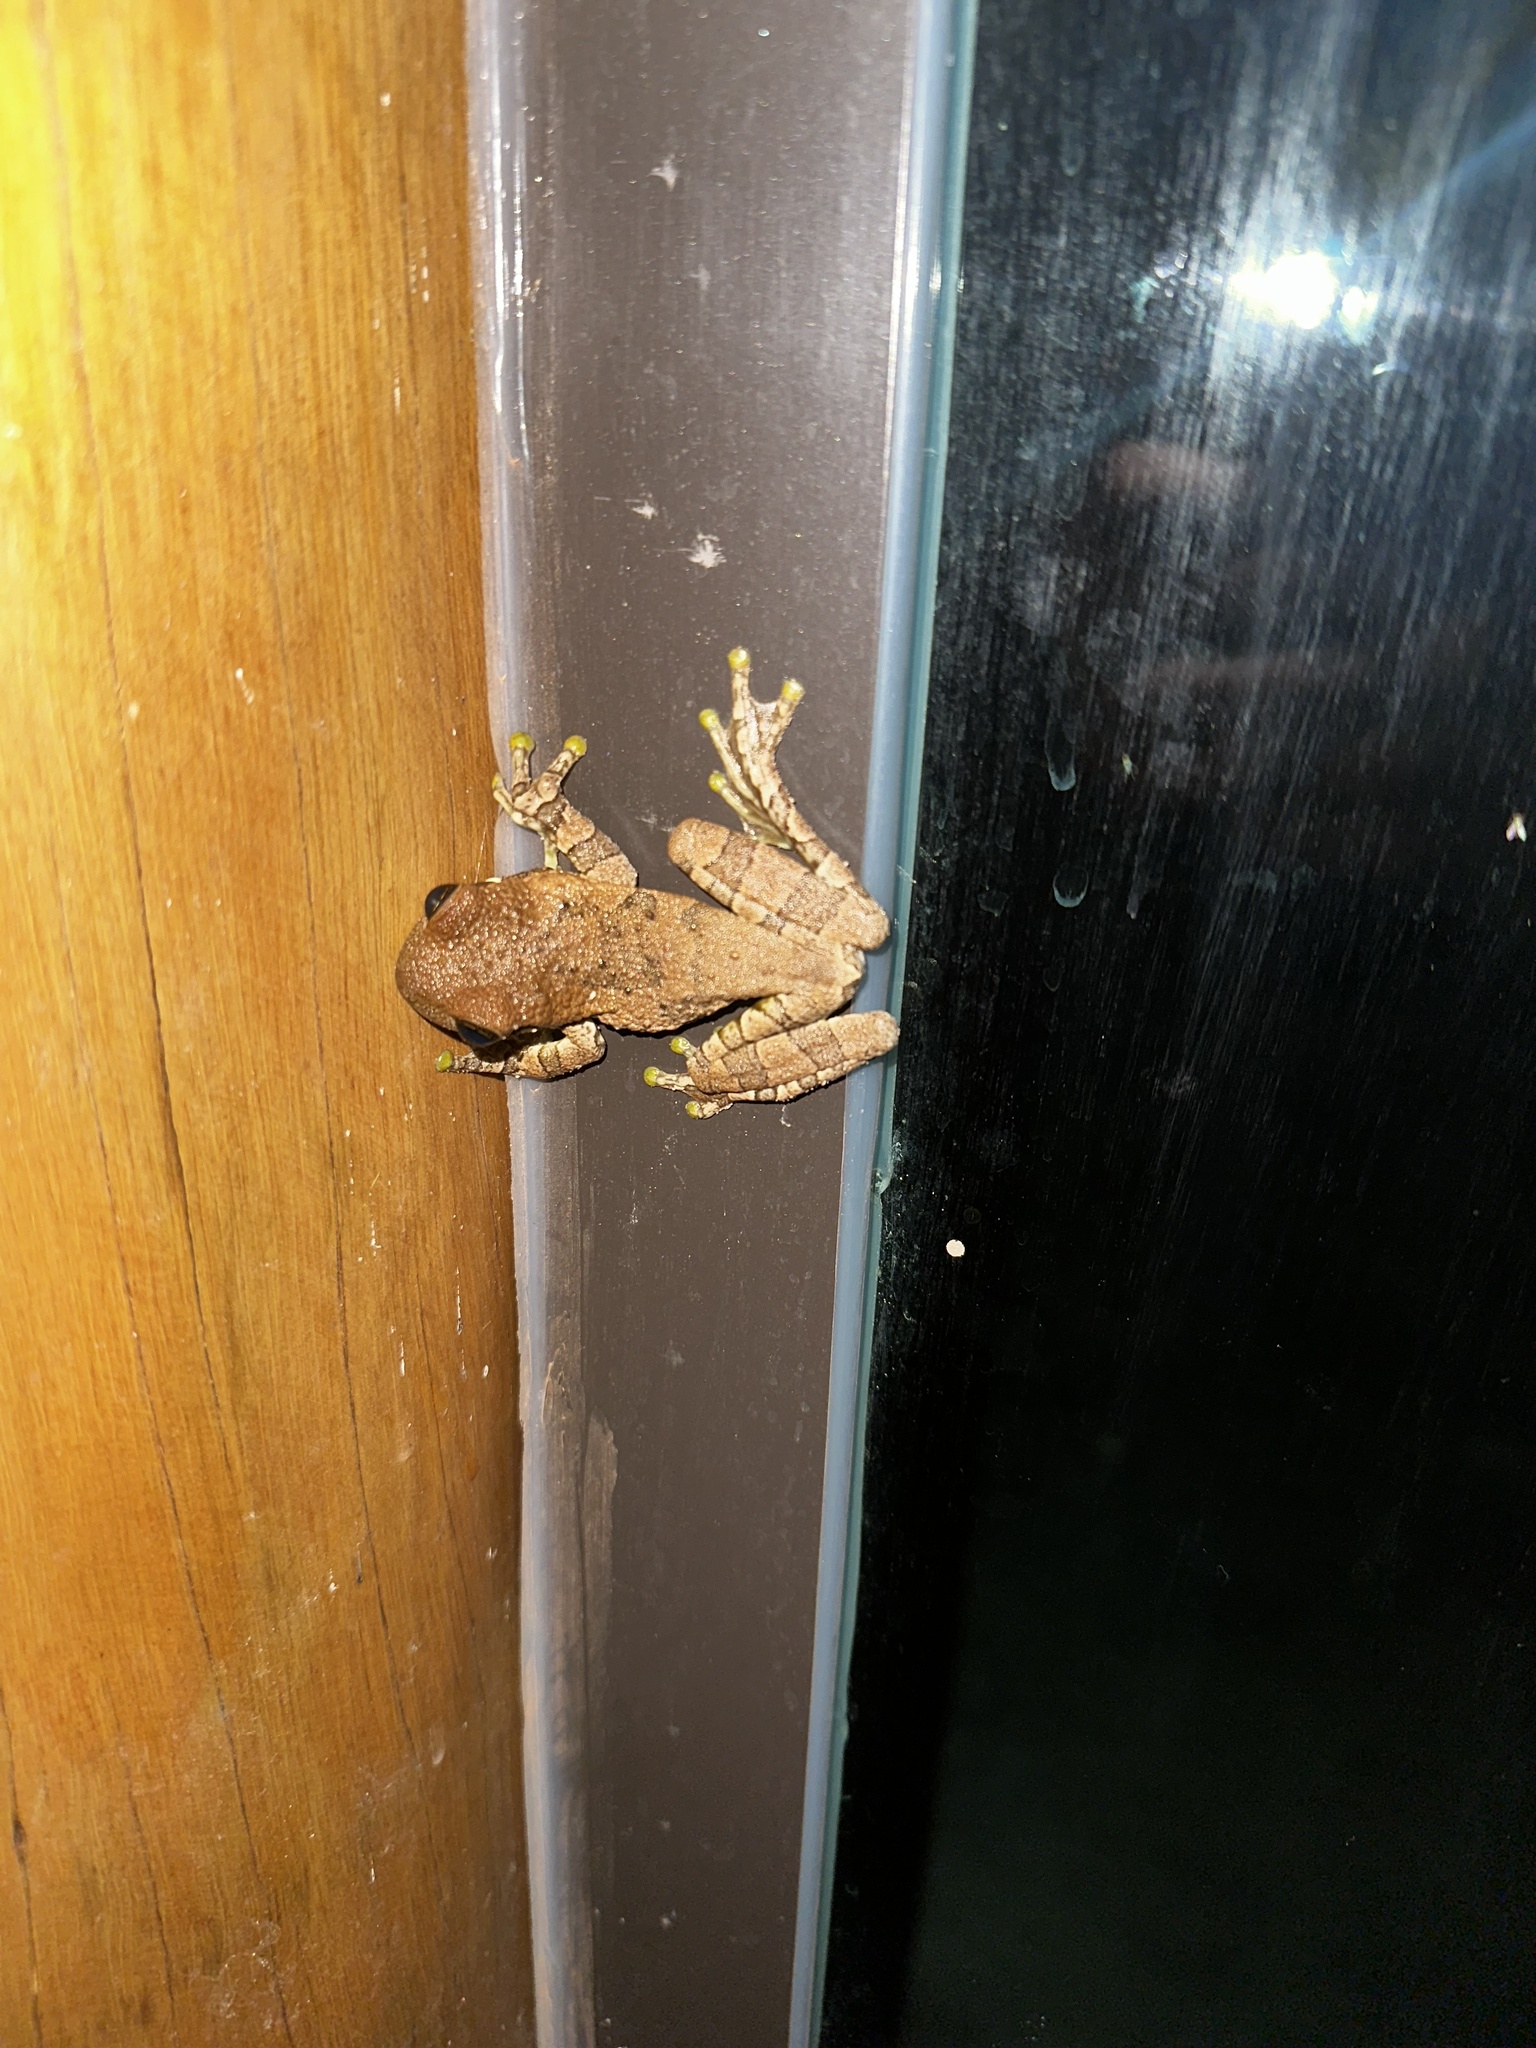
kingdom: Animalia
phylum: Chordata
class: Amphibia
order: Anura
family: Hylidae
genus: Trachycephalus
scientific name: Trachycephalus typhonius
